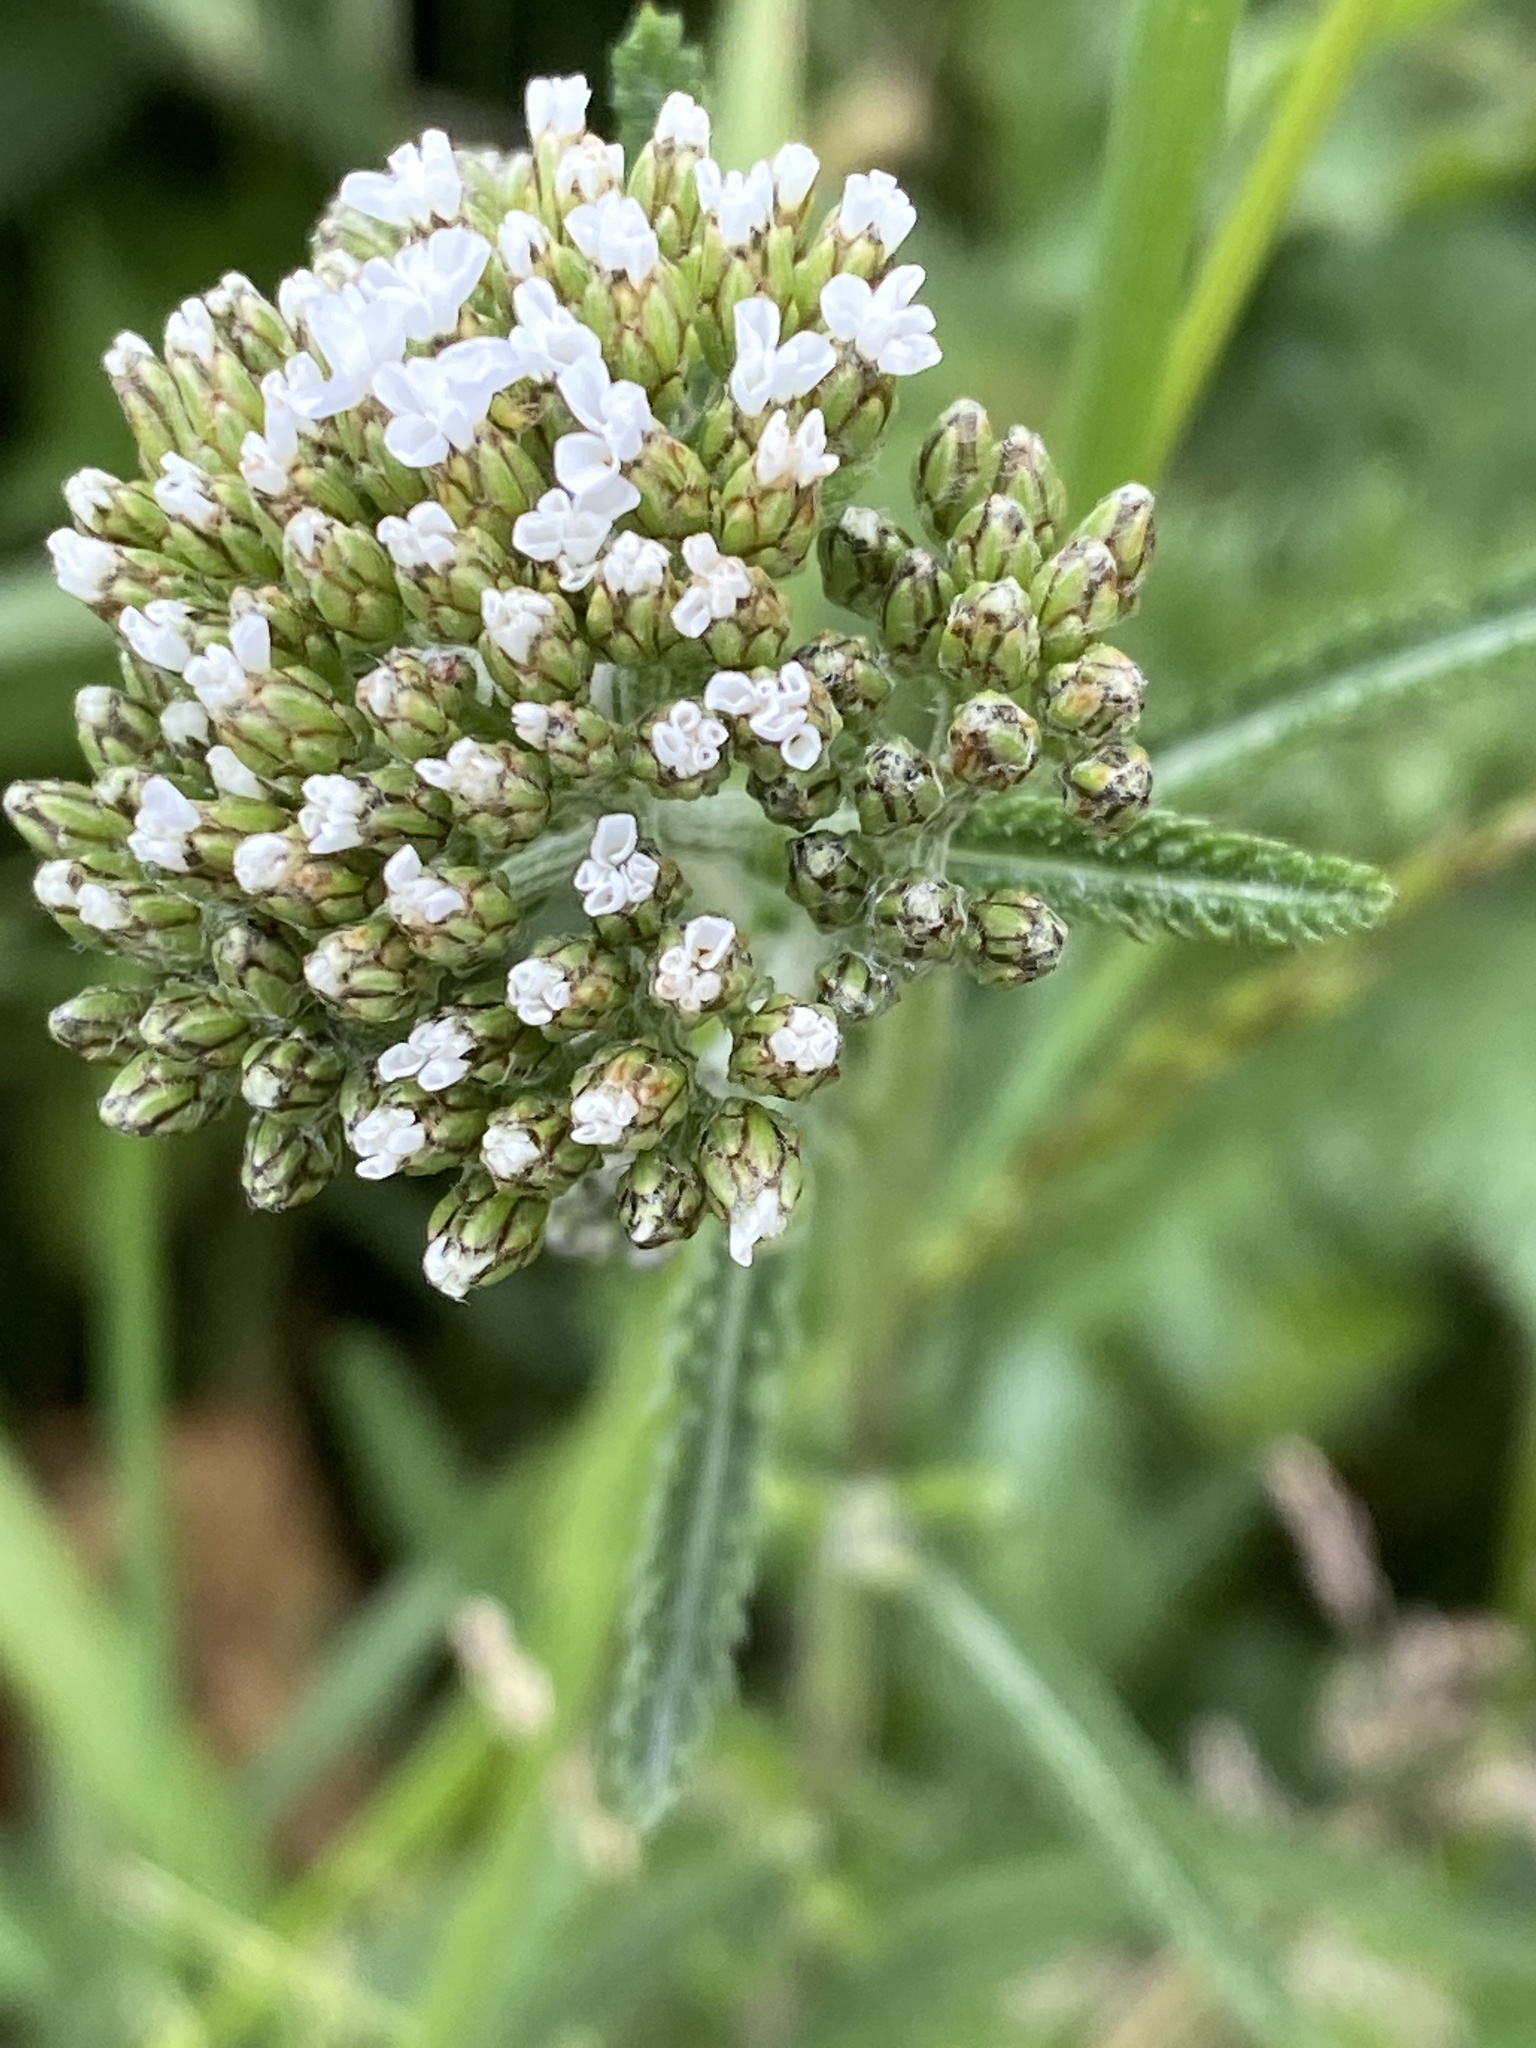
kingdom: Plantae
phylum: Tracheophyta
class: Magnoliopsida
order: Asterales
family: Asteraceae
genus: Achillea
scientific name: Achillea millefolium
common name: Yarrow
